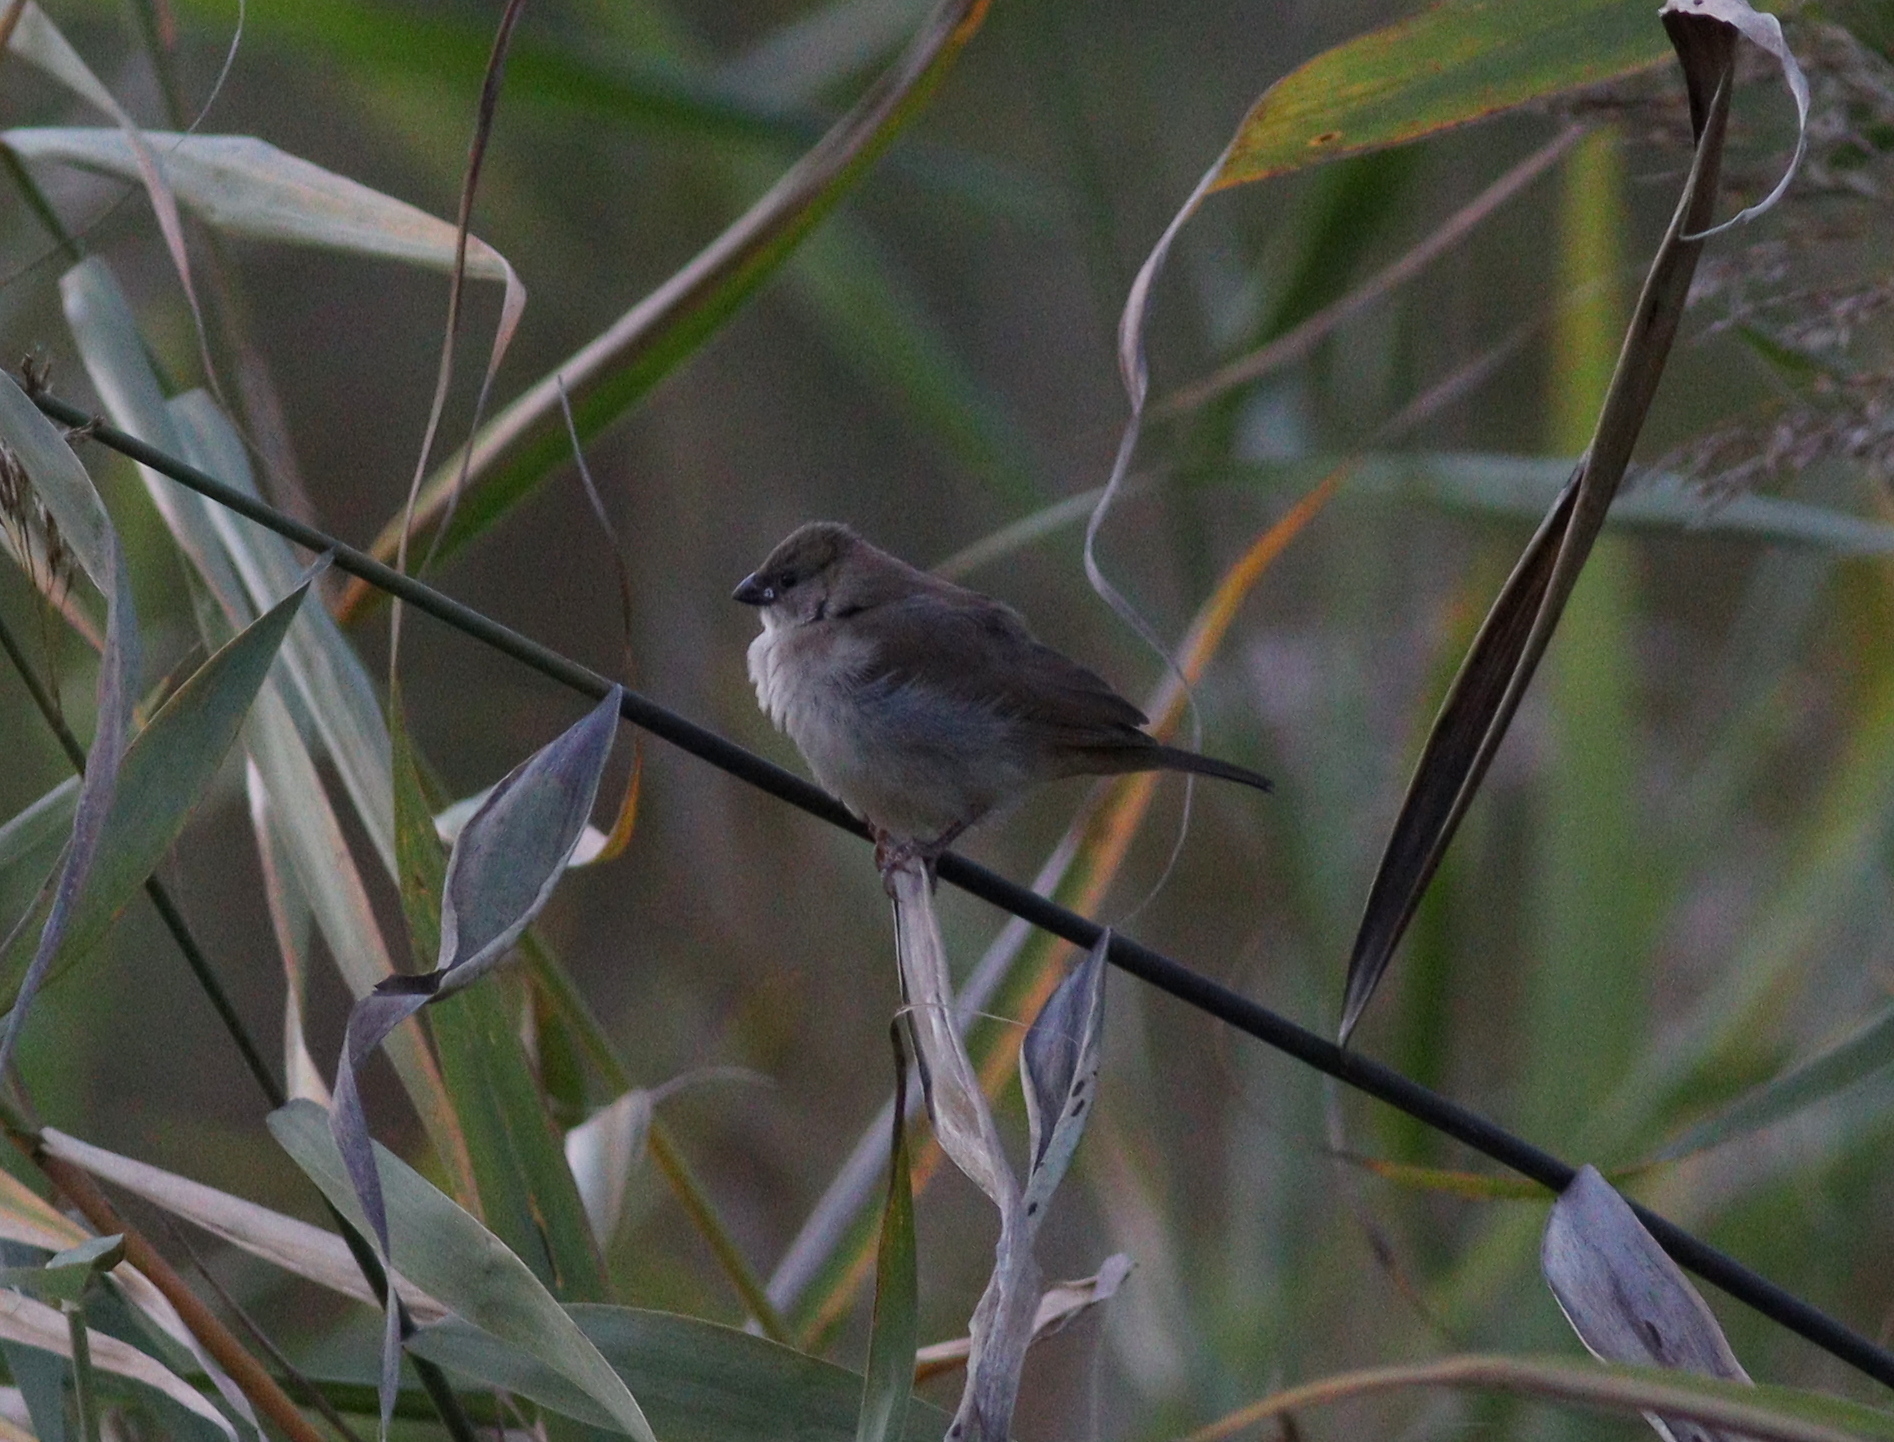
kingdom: Animalia
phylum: Chordata
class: Aves
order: Passeriformes
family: Viduidae
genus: Vidua
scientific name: Vidua macroura
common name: Pin-tailed whydah
